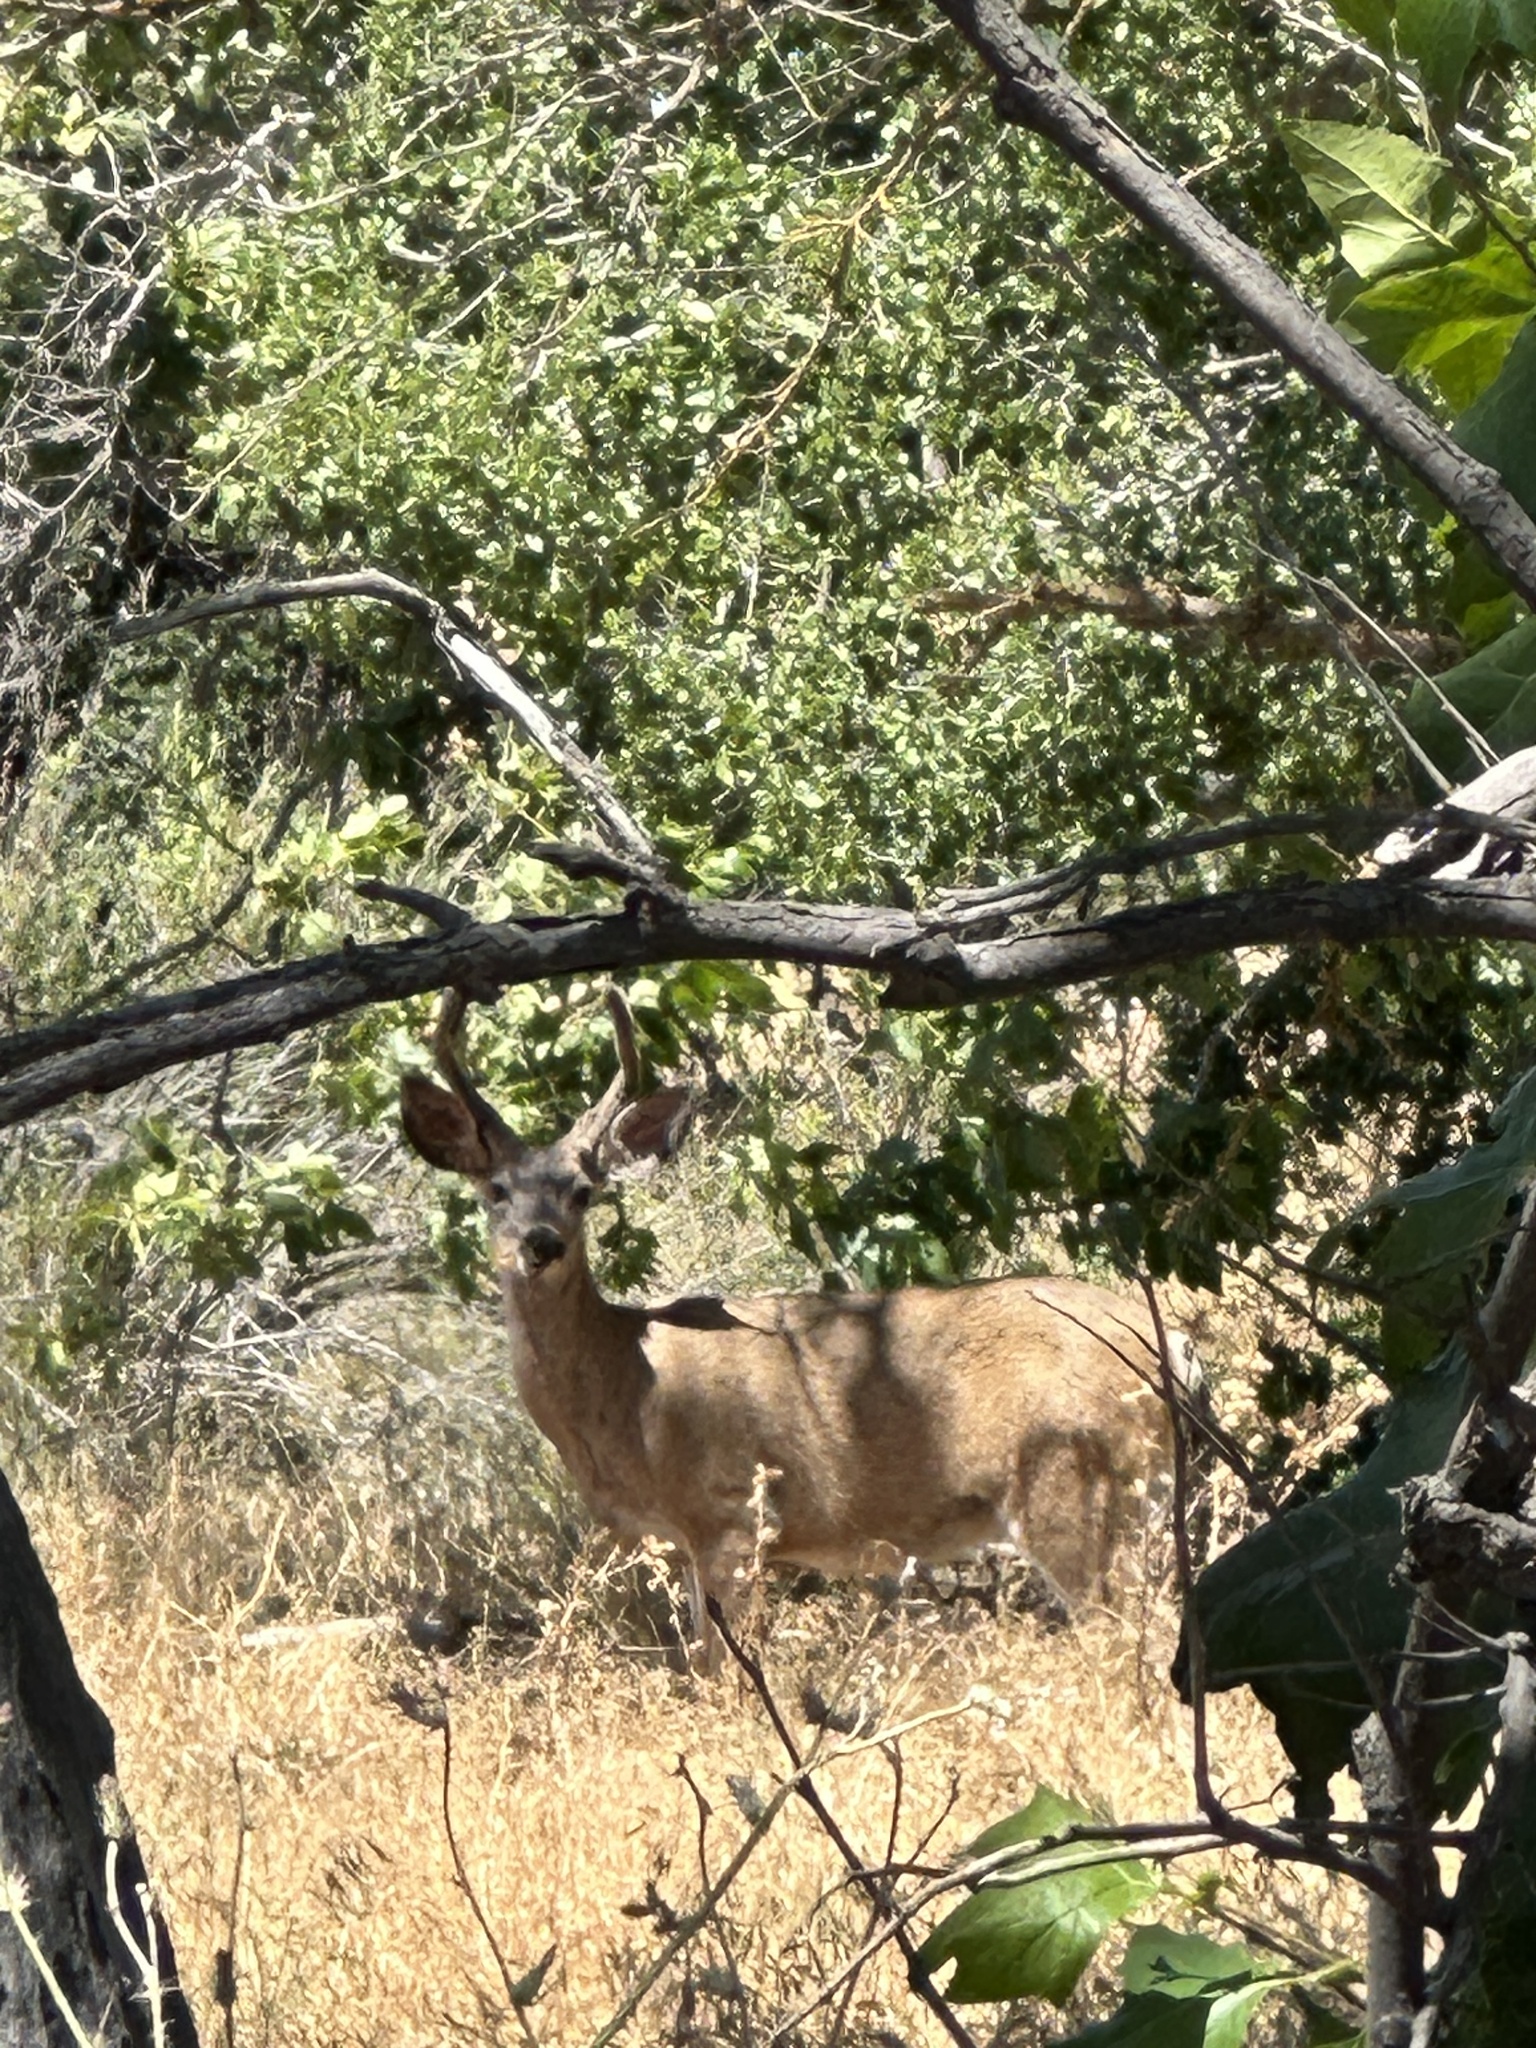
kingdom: Animalia
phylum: Chordata
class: Mammalia
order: Artiodactyla
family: Cervidae
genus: Odocoileus
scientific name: Odocoileus hemionus
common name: Mule deer
